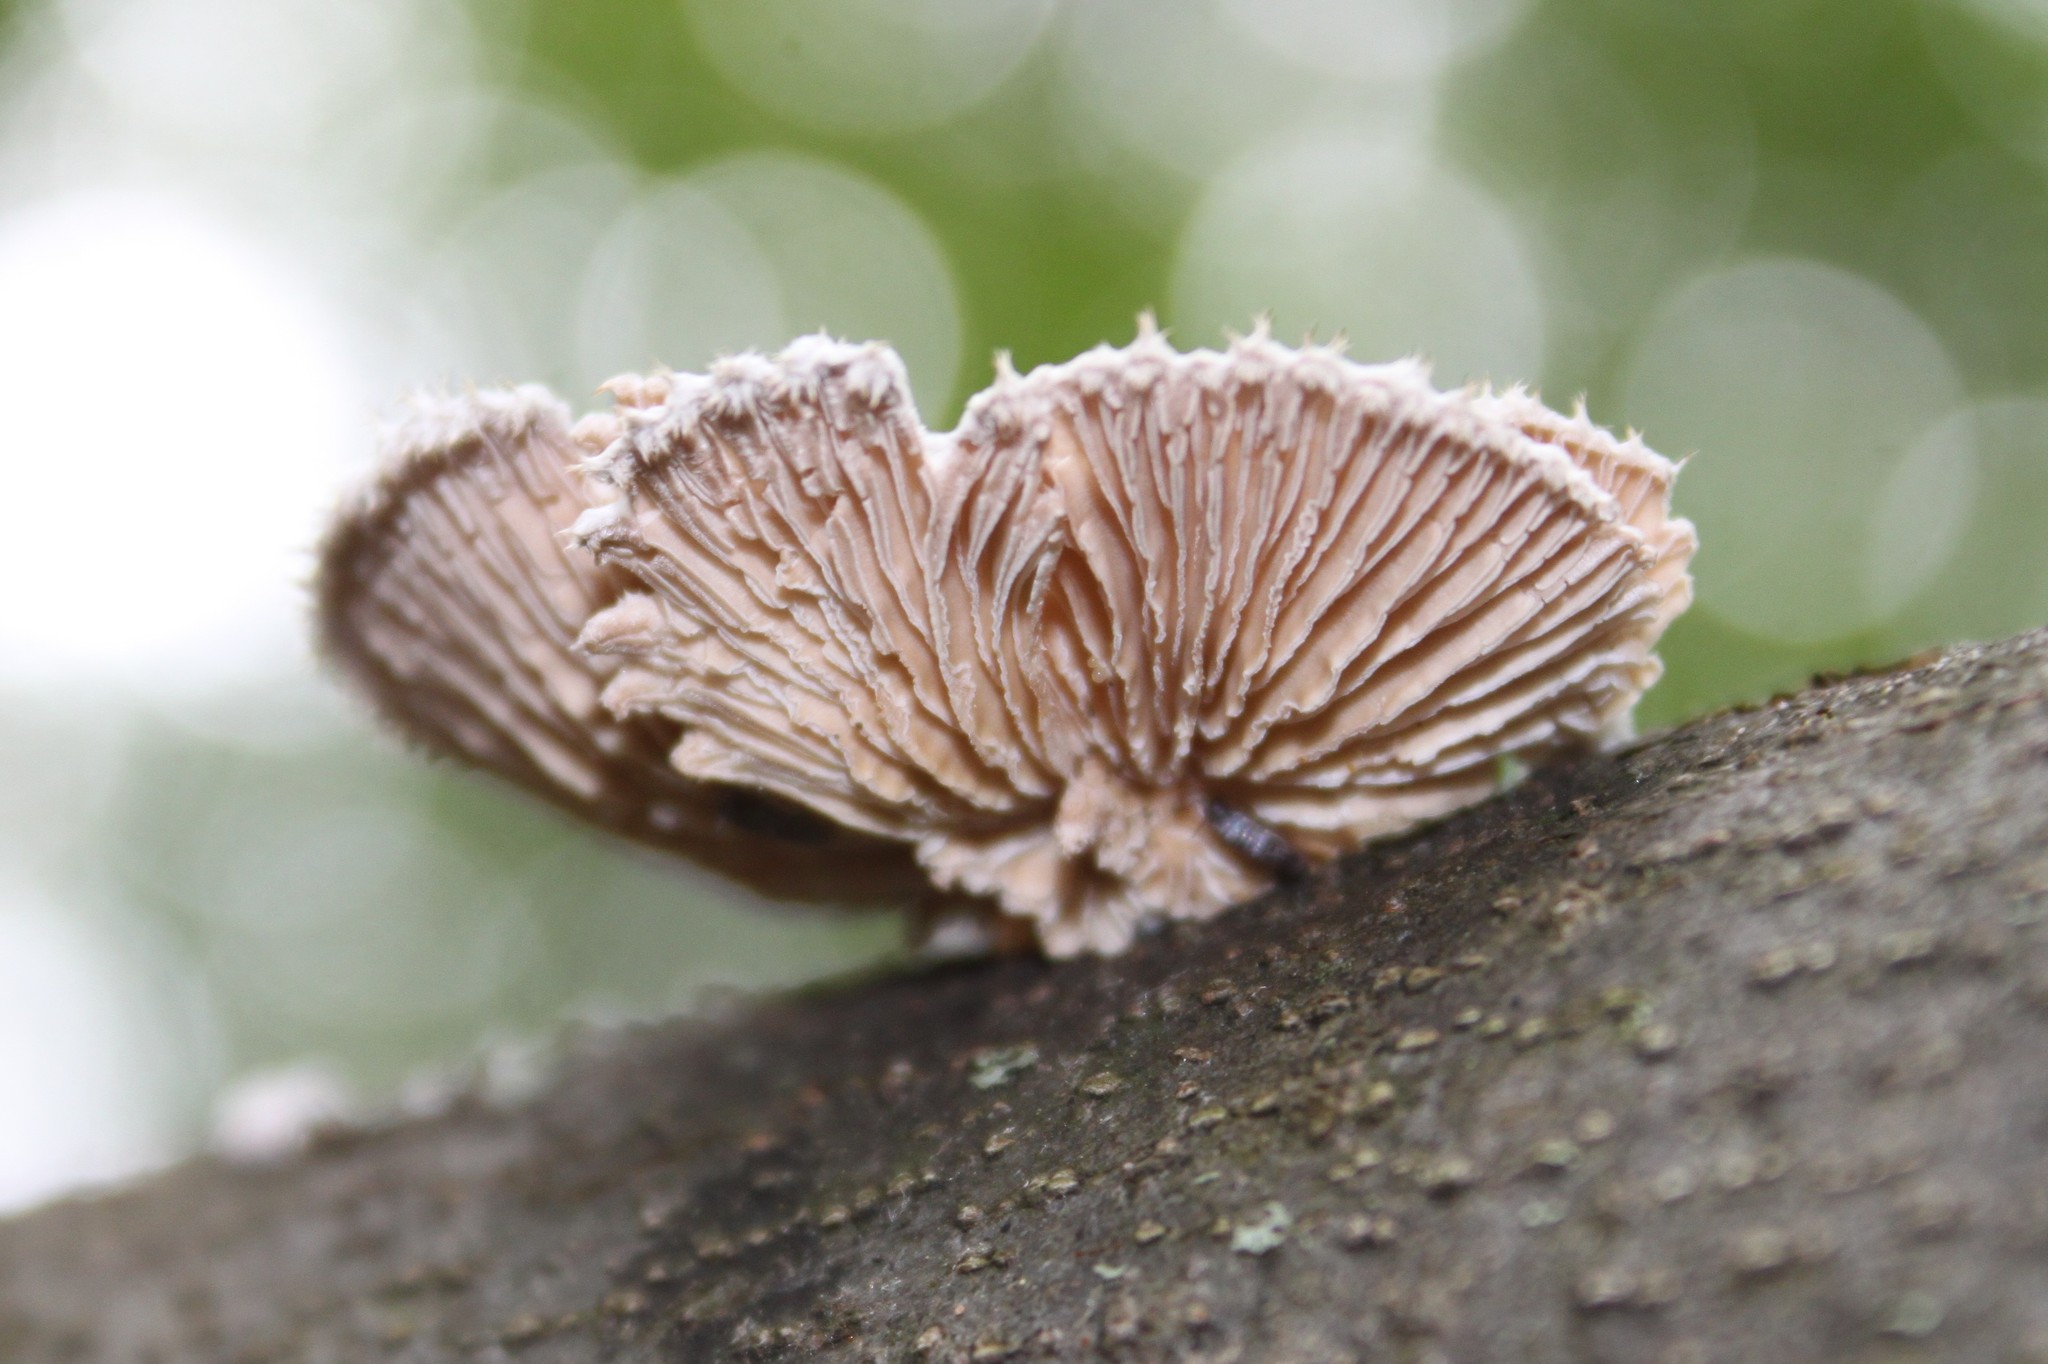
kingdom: Fungi
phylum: Basidiomycota
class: Agaricomycetes
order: Agaricales
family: Schizophyllaceae
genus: Schizophyllum
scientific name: Schizophyllum commune
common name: Common porecrust
